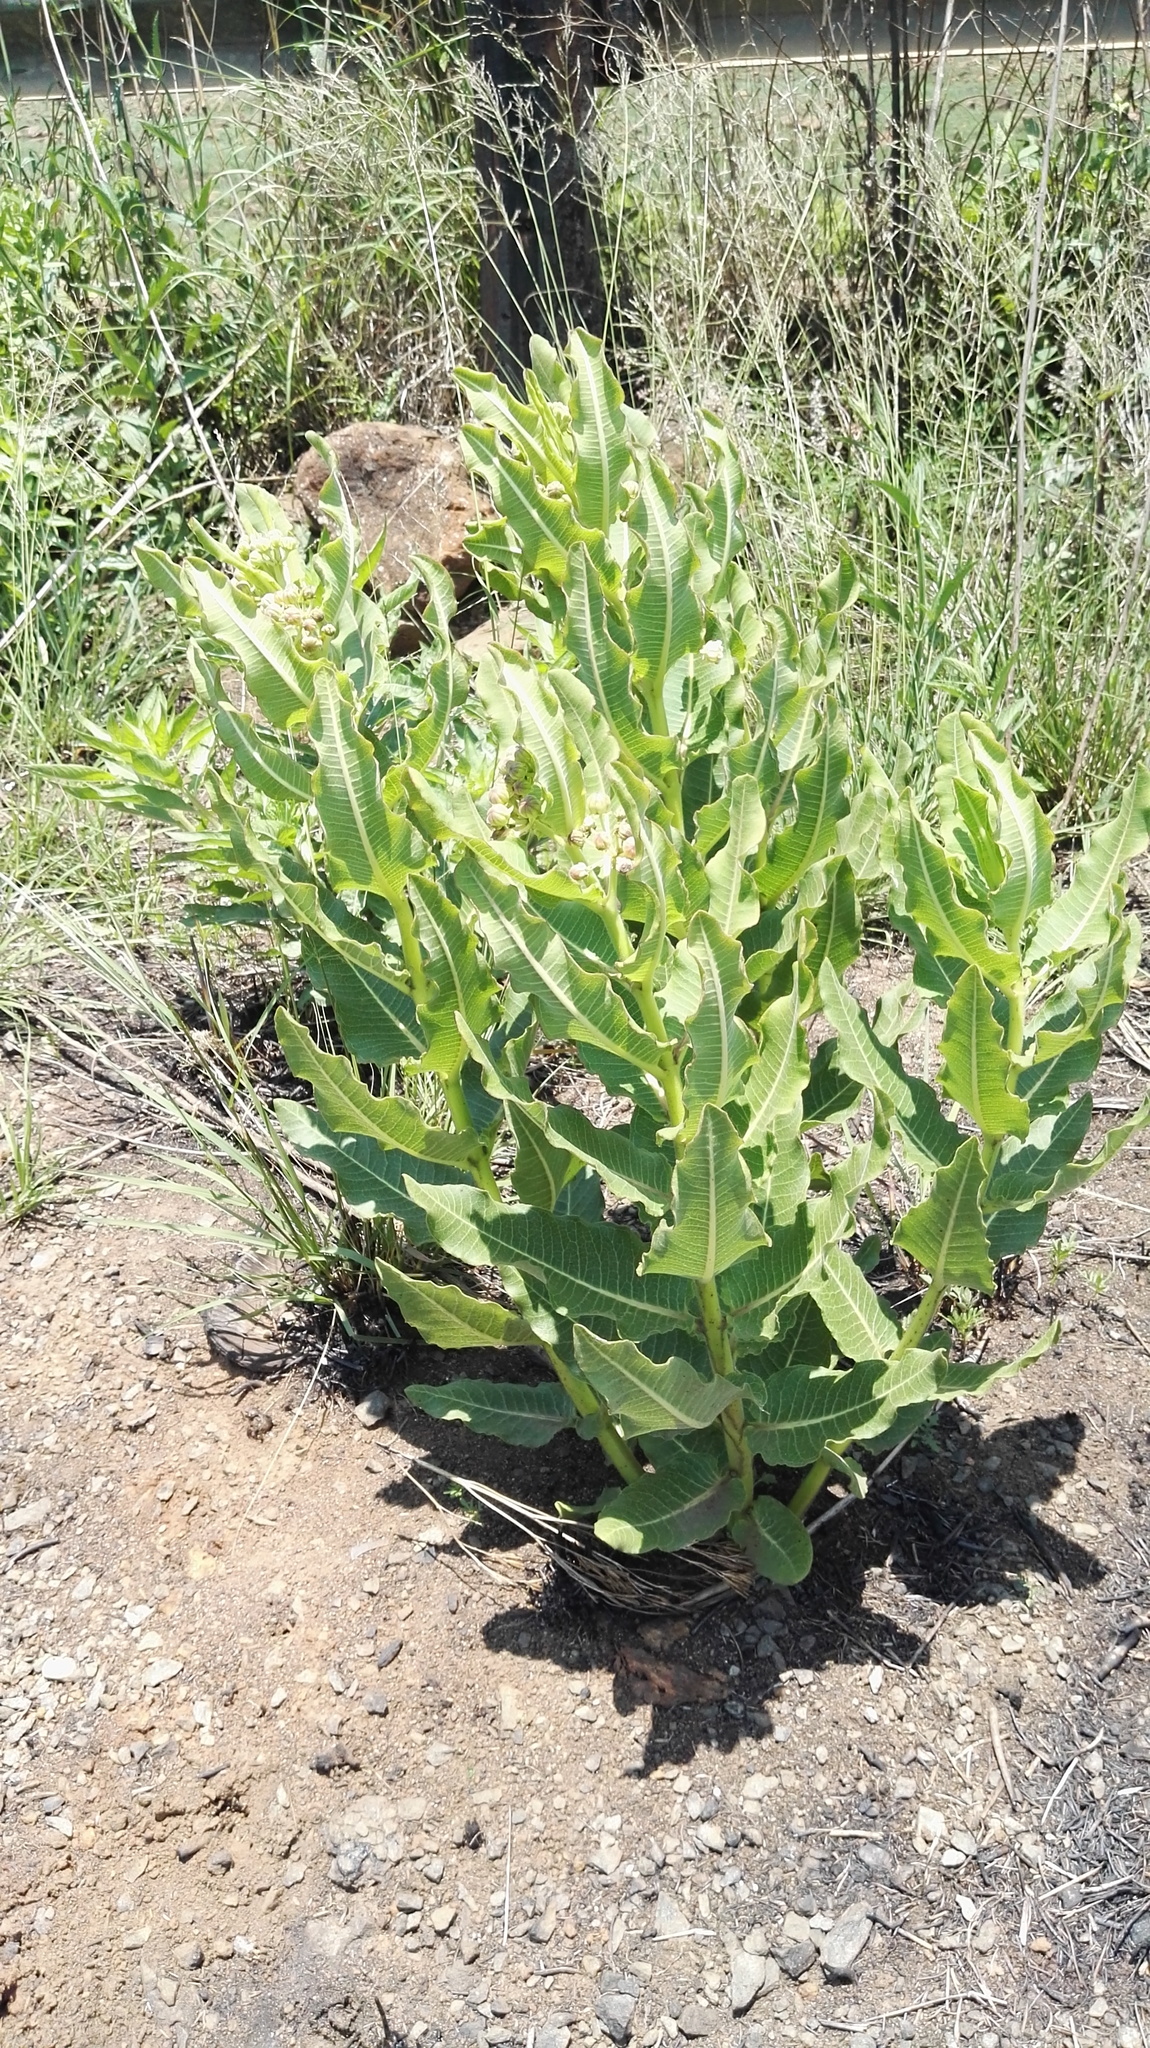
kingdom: Plantae
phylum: Tracheophyta
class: Magnoliopsida
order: Gentianales
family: Apocynaceae
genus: Xysmalobium
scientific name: Xysmalobium undulatum
